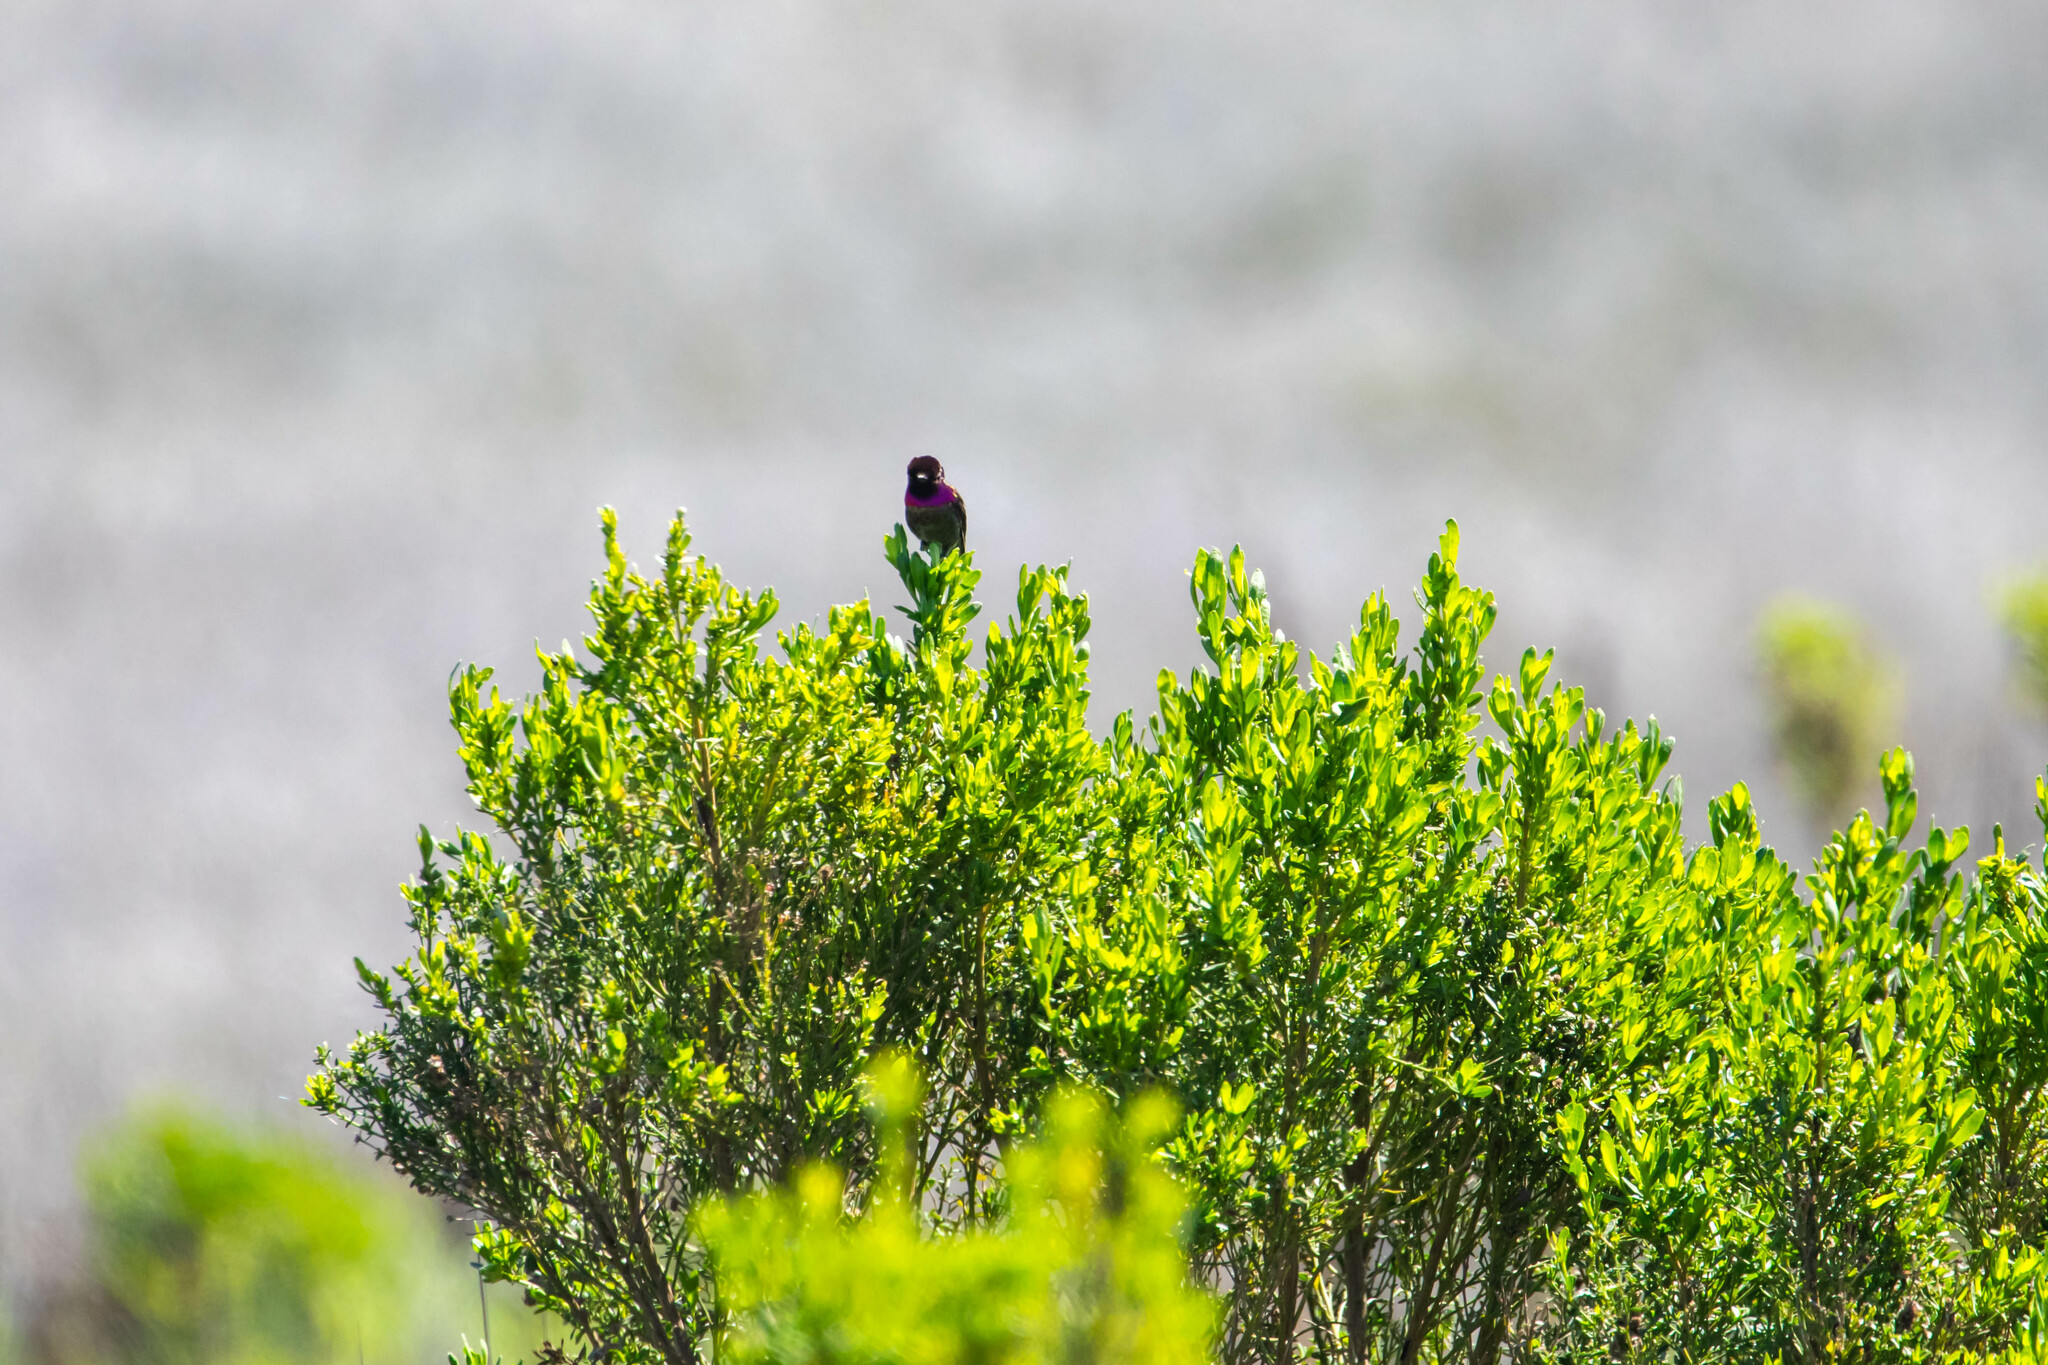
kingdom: Animalia
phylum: Chordata
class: Aves
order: Apodiformes
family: Trochilidae
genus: Calypte
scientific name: Calypte anna
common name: Anna's hummingbird
